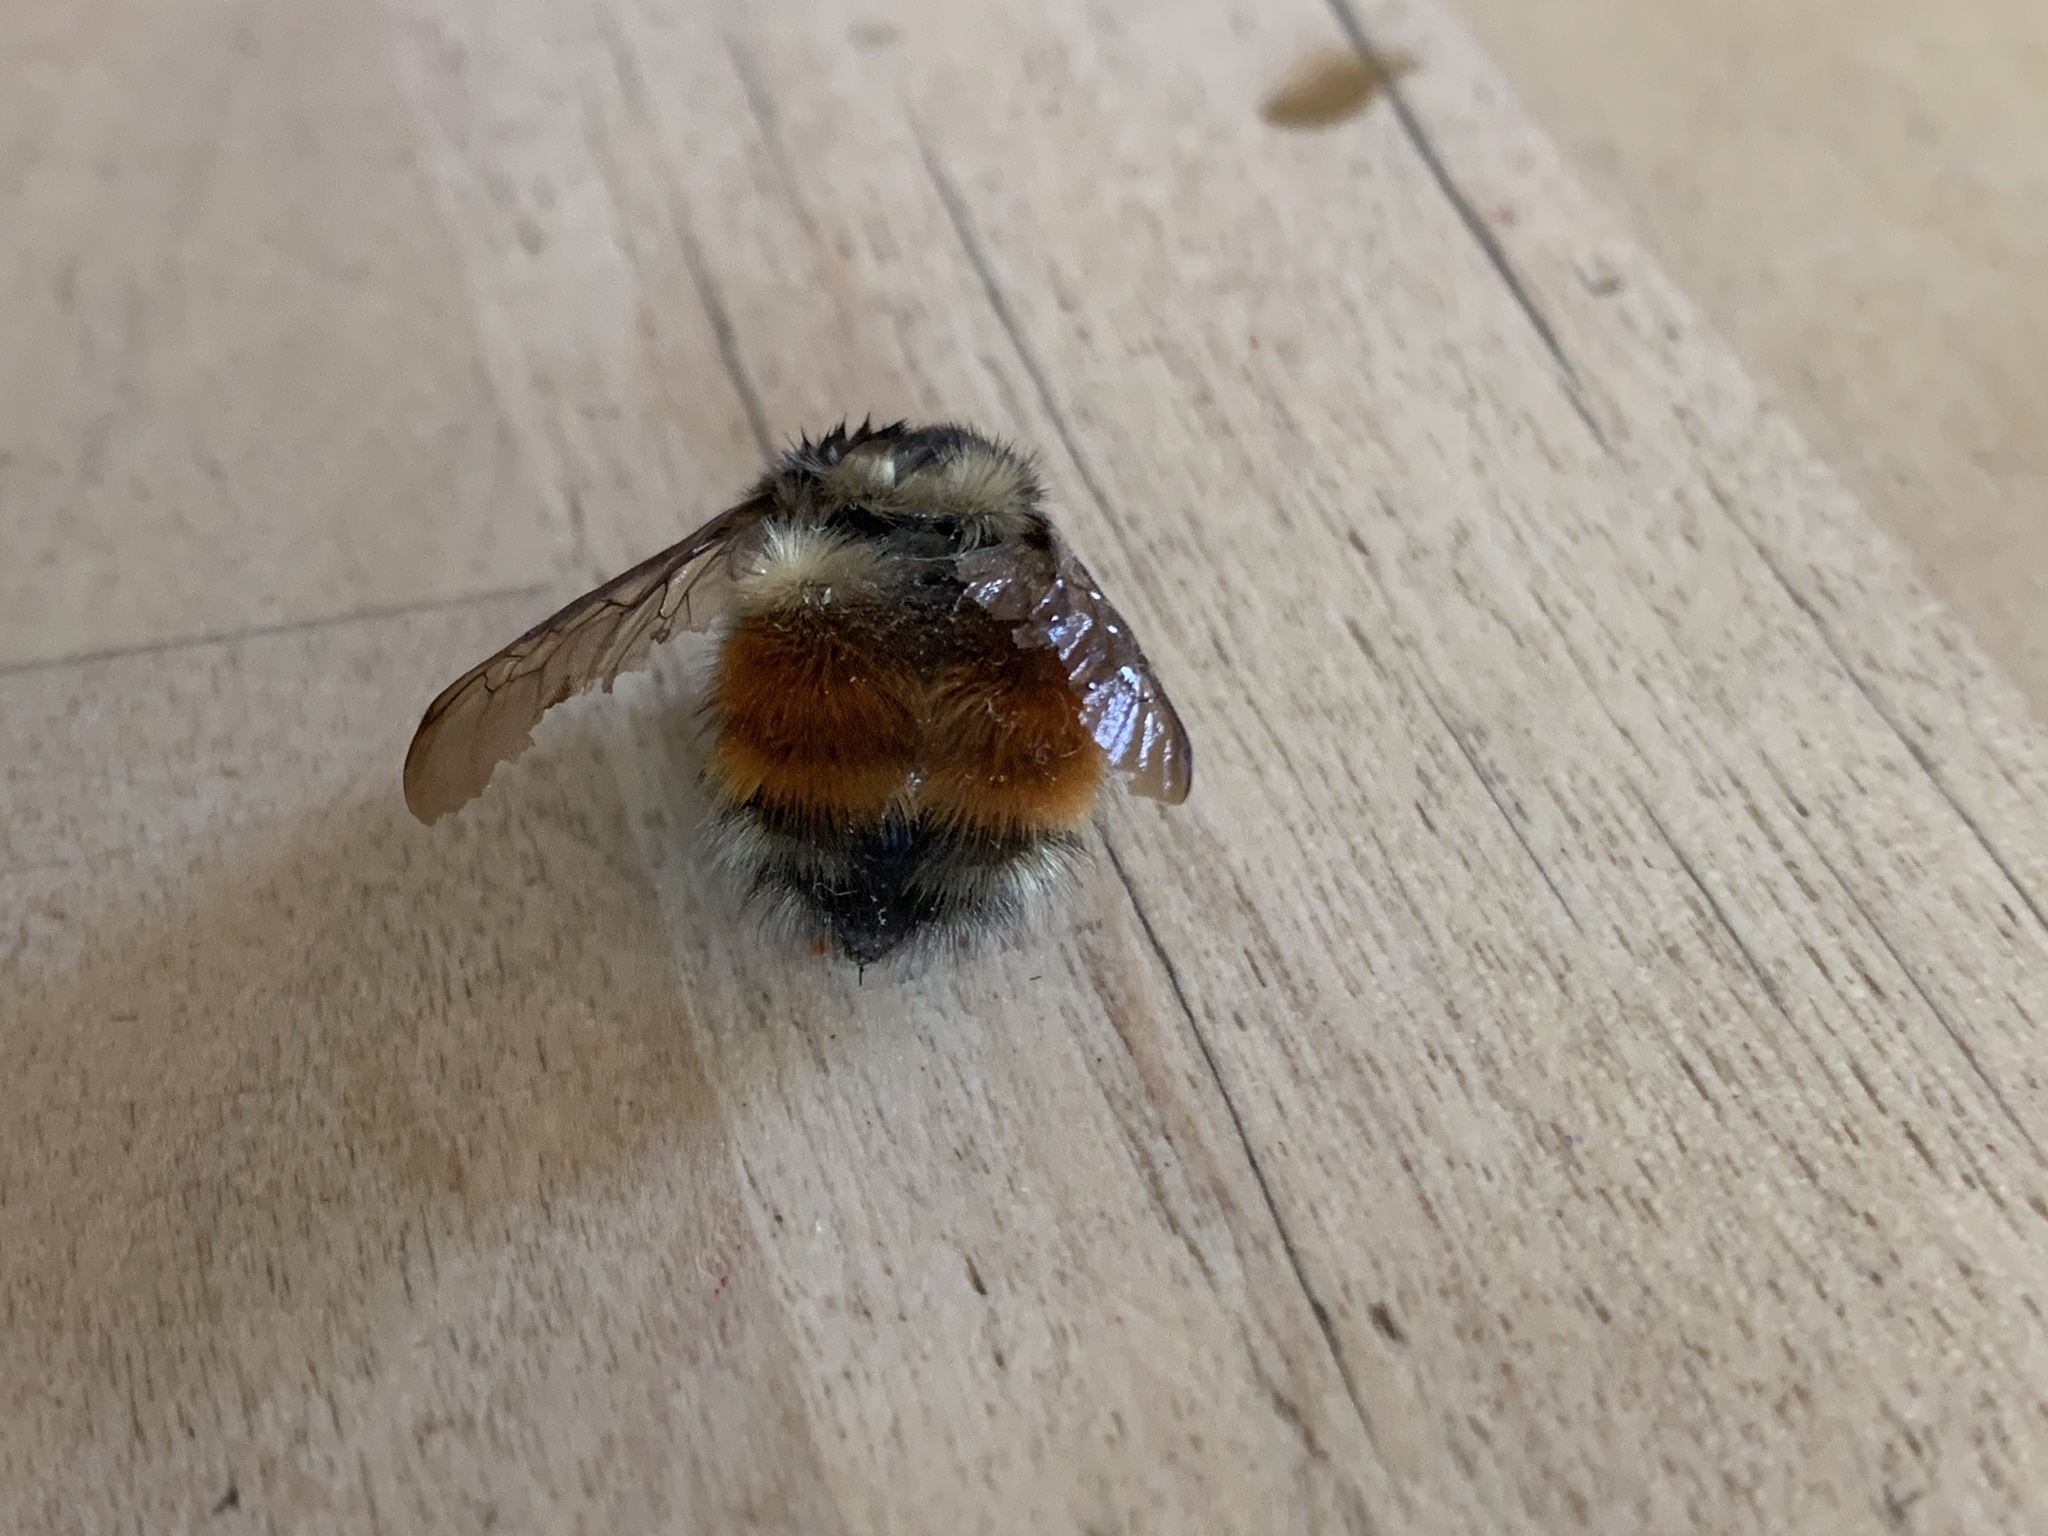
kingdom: Animalia
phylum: Arthropoda
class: Insecta
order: Hymenoptera
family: Apidae
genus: Bombus
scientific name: Bombus melanopygus
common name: Black tail bumble bee
